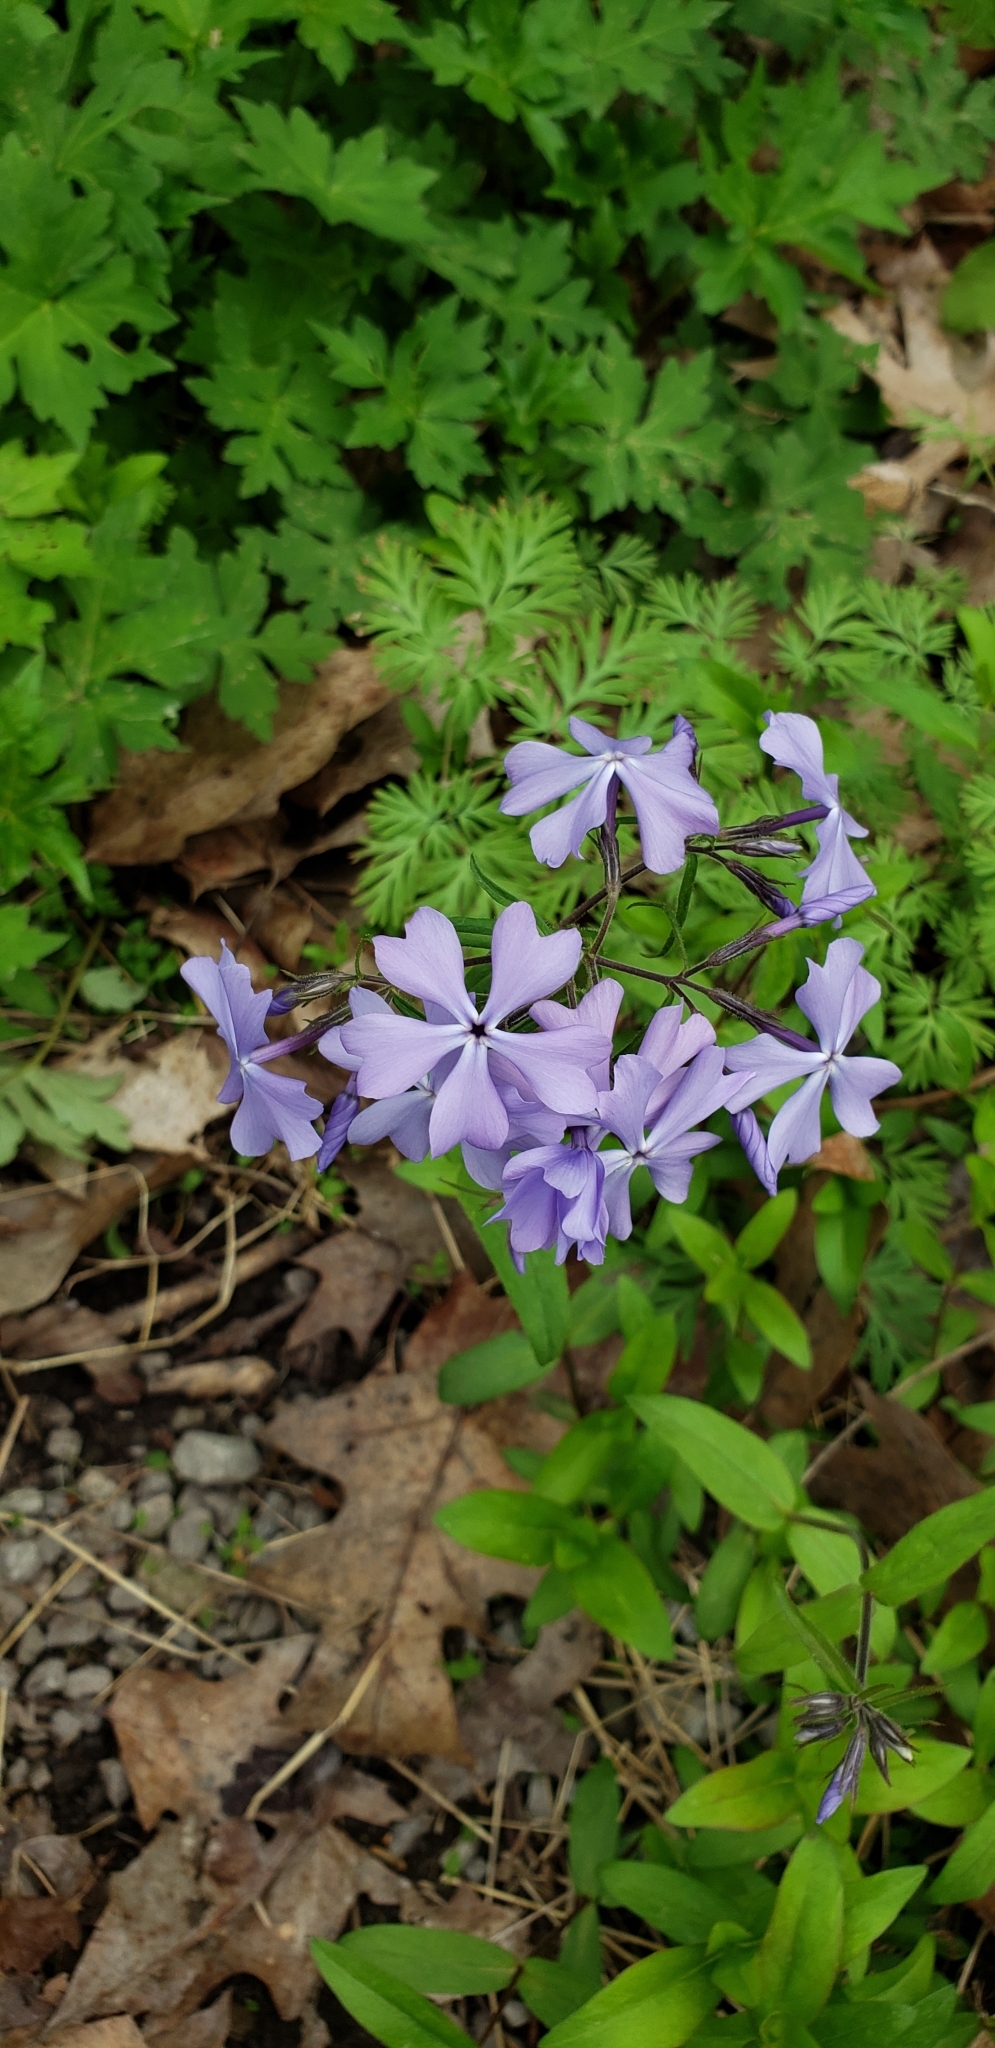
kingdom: Plantae
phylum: Tracheophyta
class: Magnoliopsida
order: Ericales
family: Polemoniaceae
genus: Phlox
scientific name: Phlox divaricata
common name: Blue phlox
